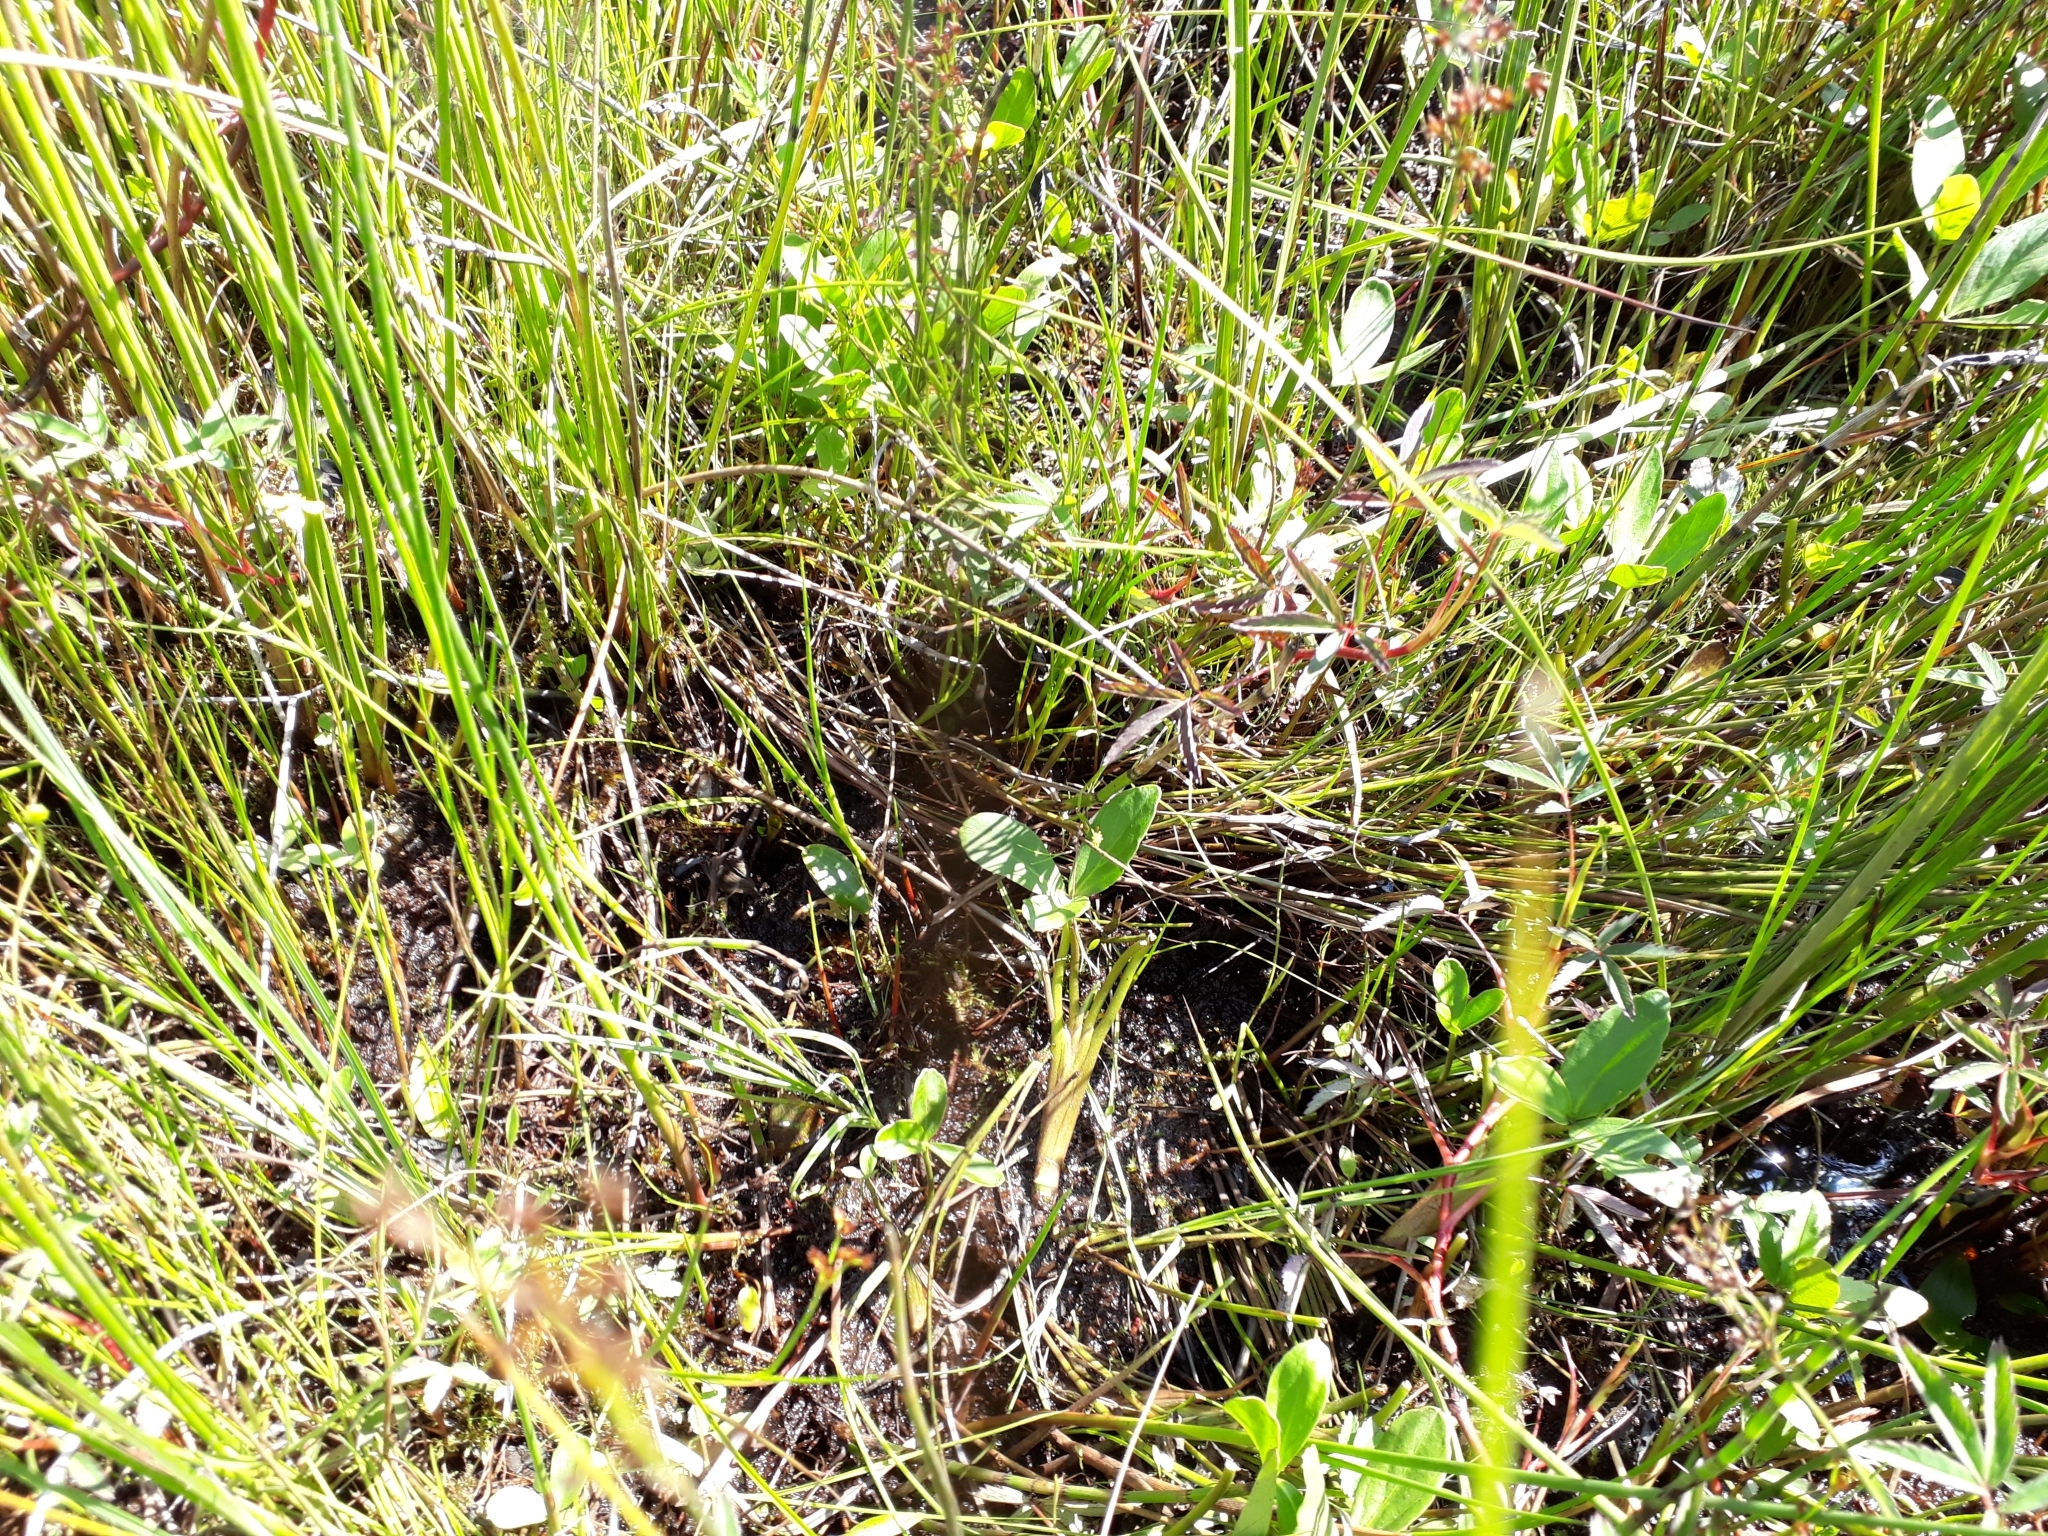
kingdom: Plantae
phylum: Tracheophyta
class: Magnoliopsida
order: Asterales
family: Menyanthaceae
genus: Menyanthes
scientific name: Menyanthes trifoliata
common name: Bogbean
